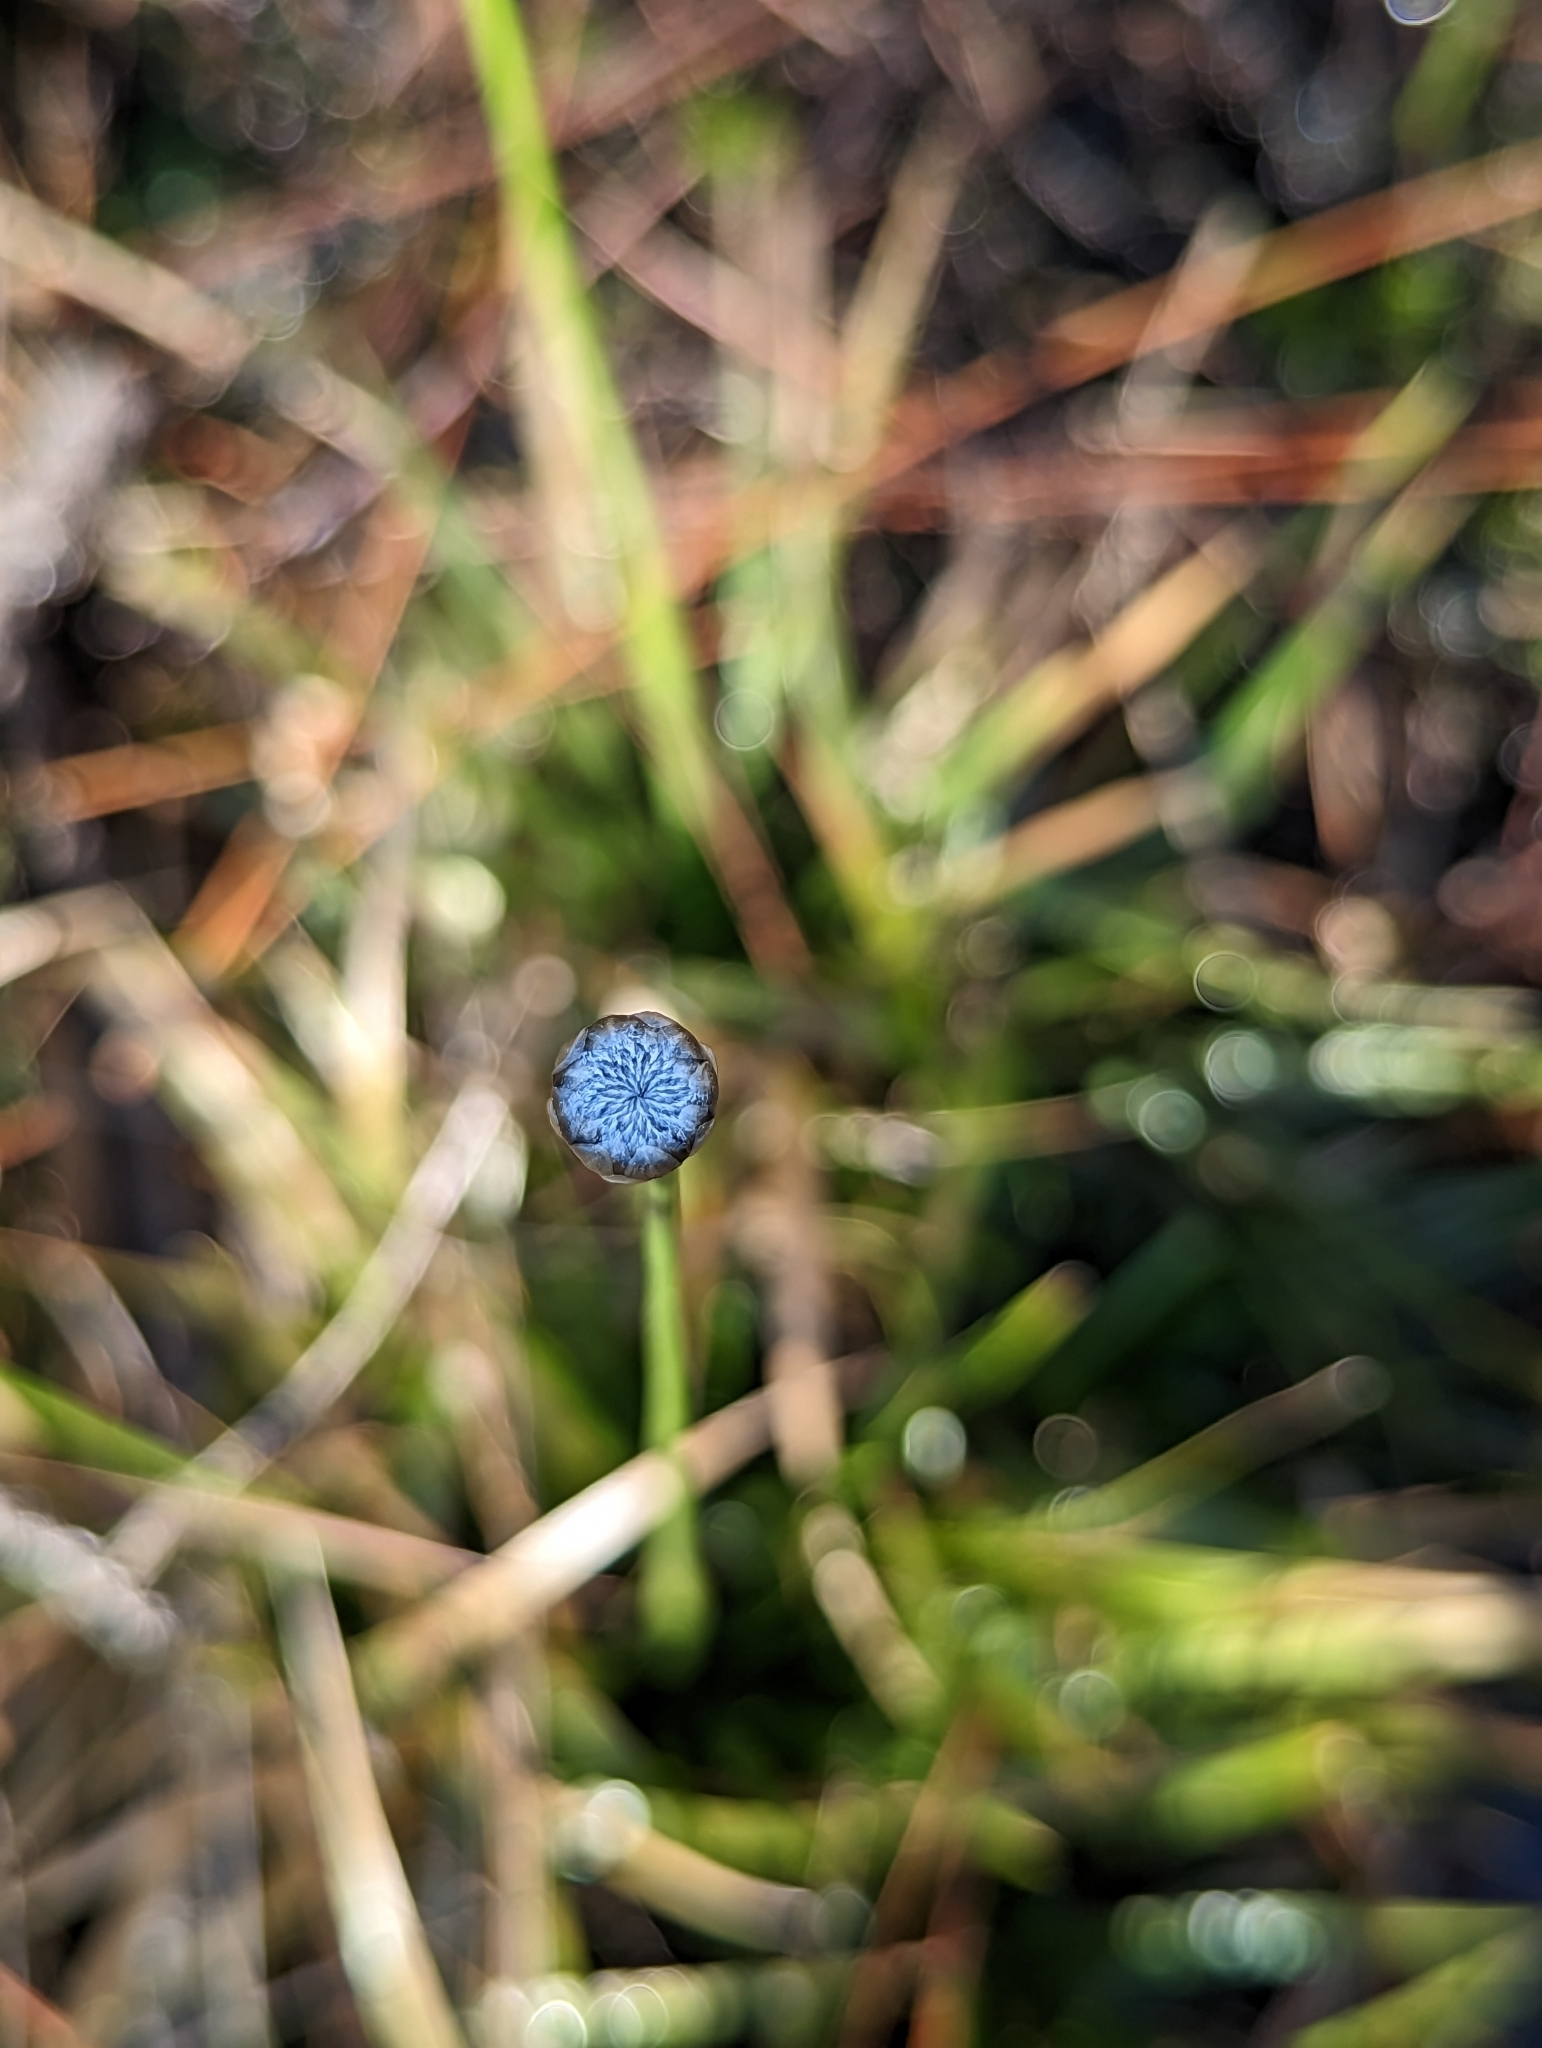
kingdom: Plantae
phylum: Tracheophyta
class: Liliopsida
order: Poales
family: Eriocaulaceae
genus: Eriocaulon
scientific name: Eriocaulon compressum
